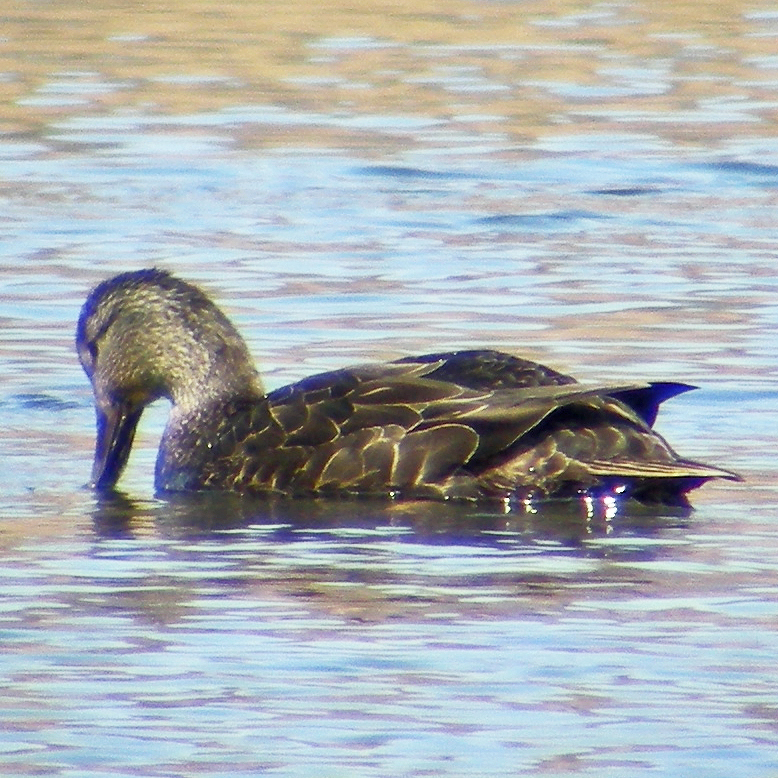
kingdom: Animalia
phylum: Chordata
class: Aves
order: Anseriformes
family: Anatidae
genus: Anas
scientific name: Anas rubripes
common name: American black duck
